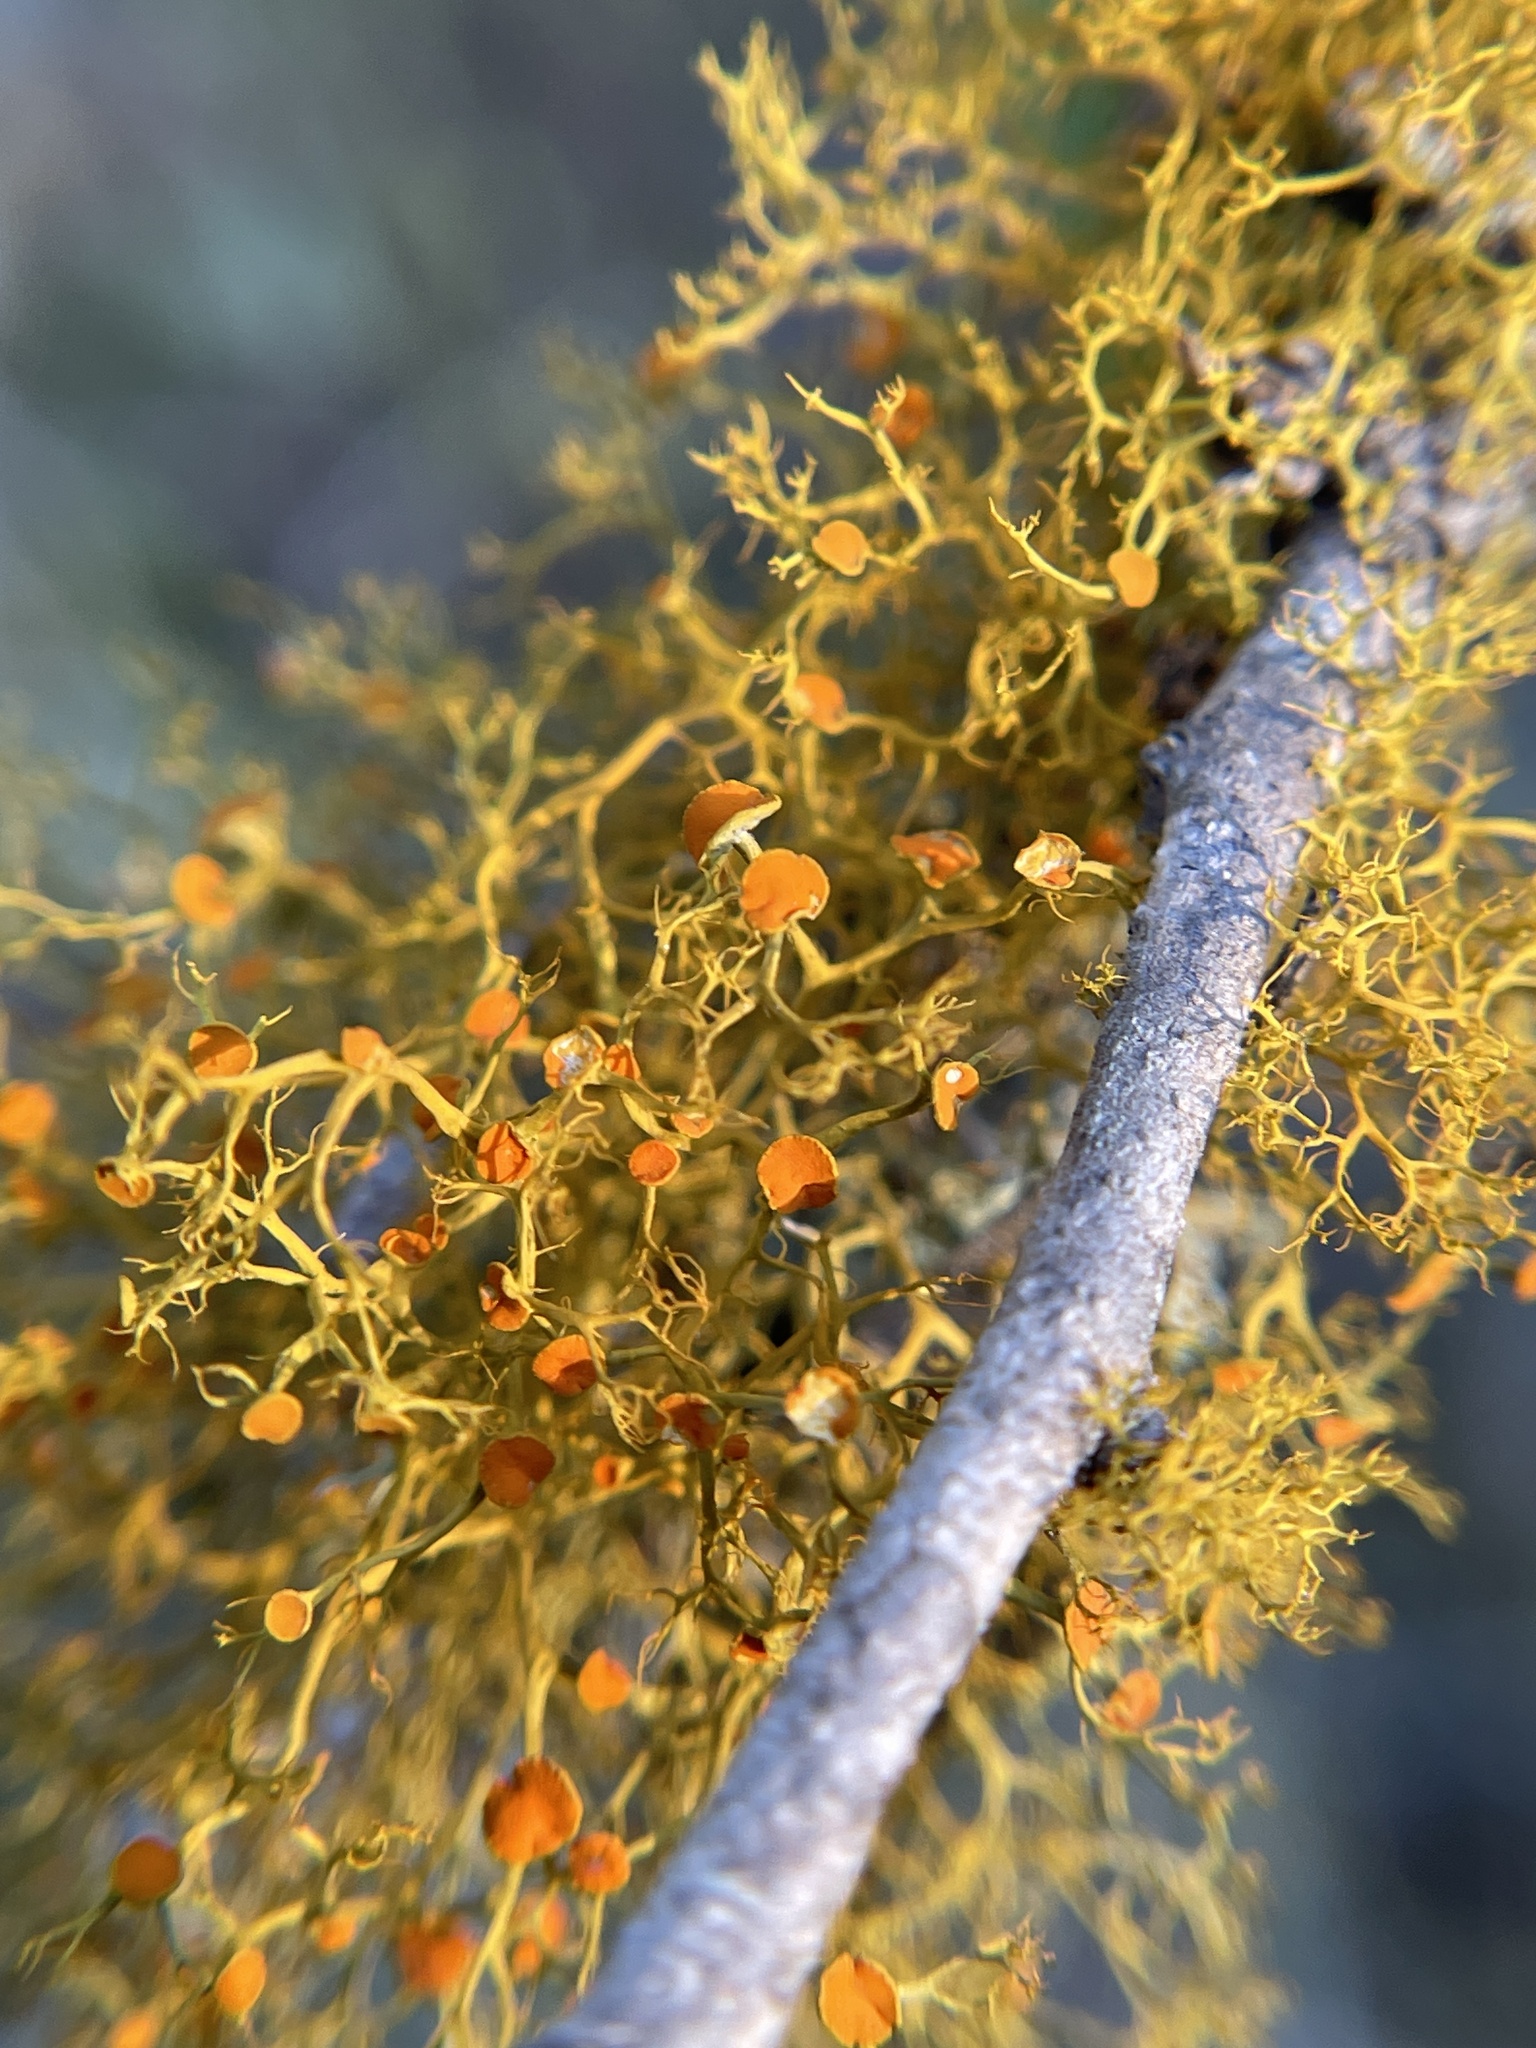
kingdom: Fungi
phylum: Ascomycota
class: Lecanoromycetes
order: Teloschistales
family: Teloschistaceae
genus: Teloschistes
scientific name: Teloschistes exilis
